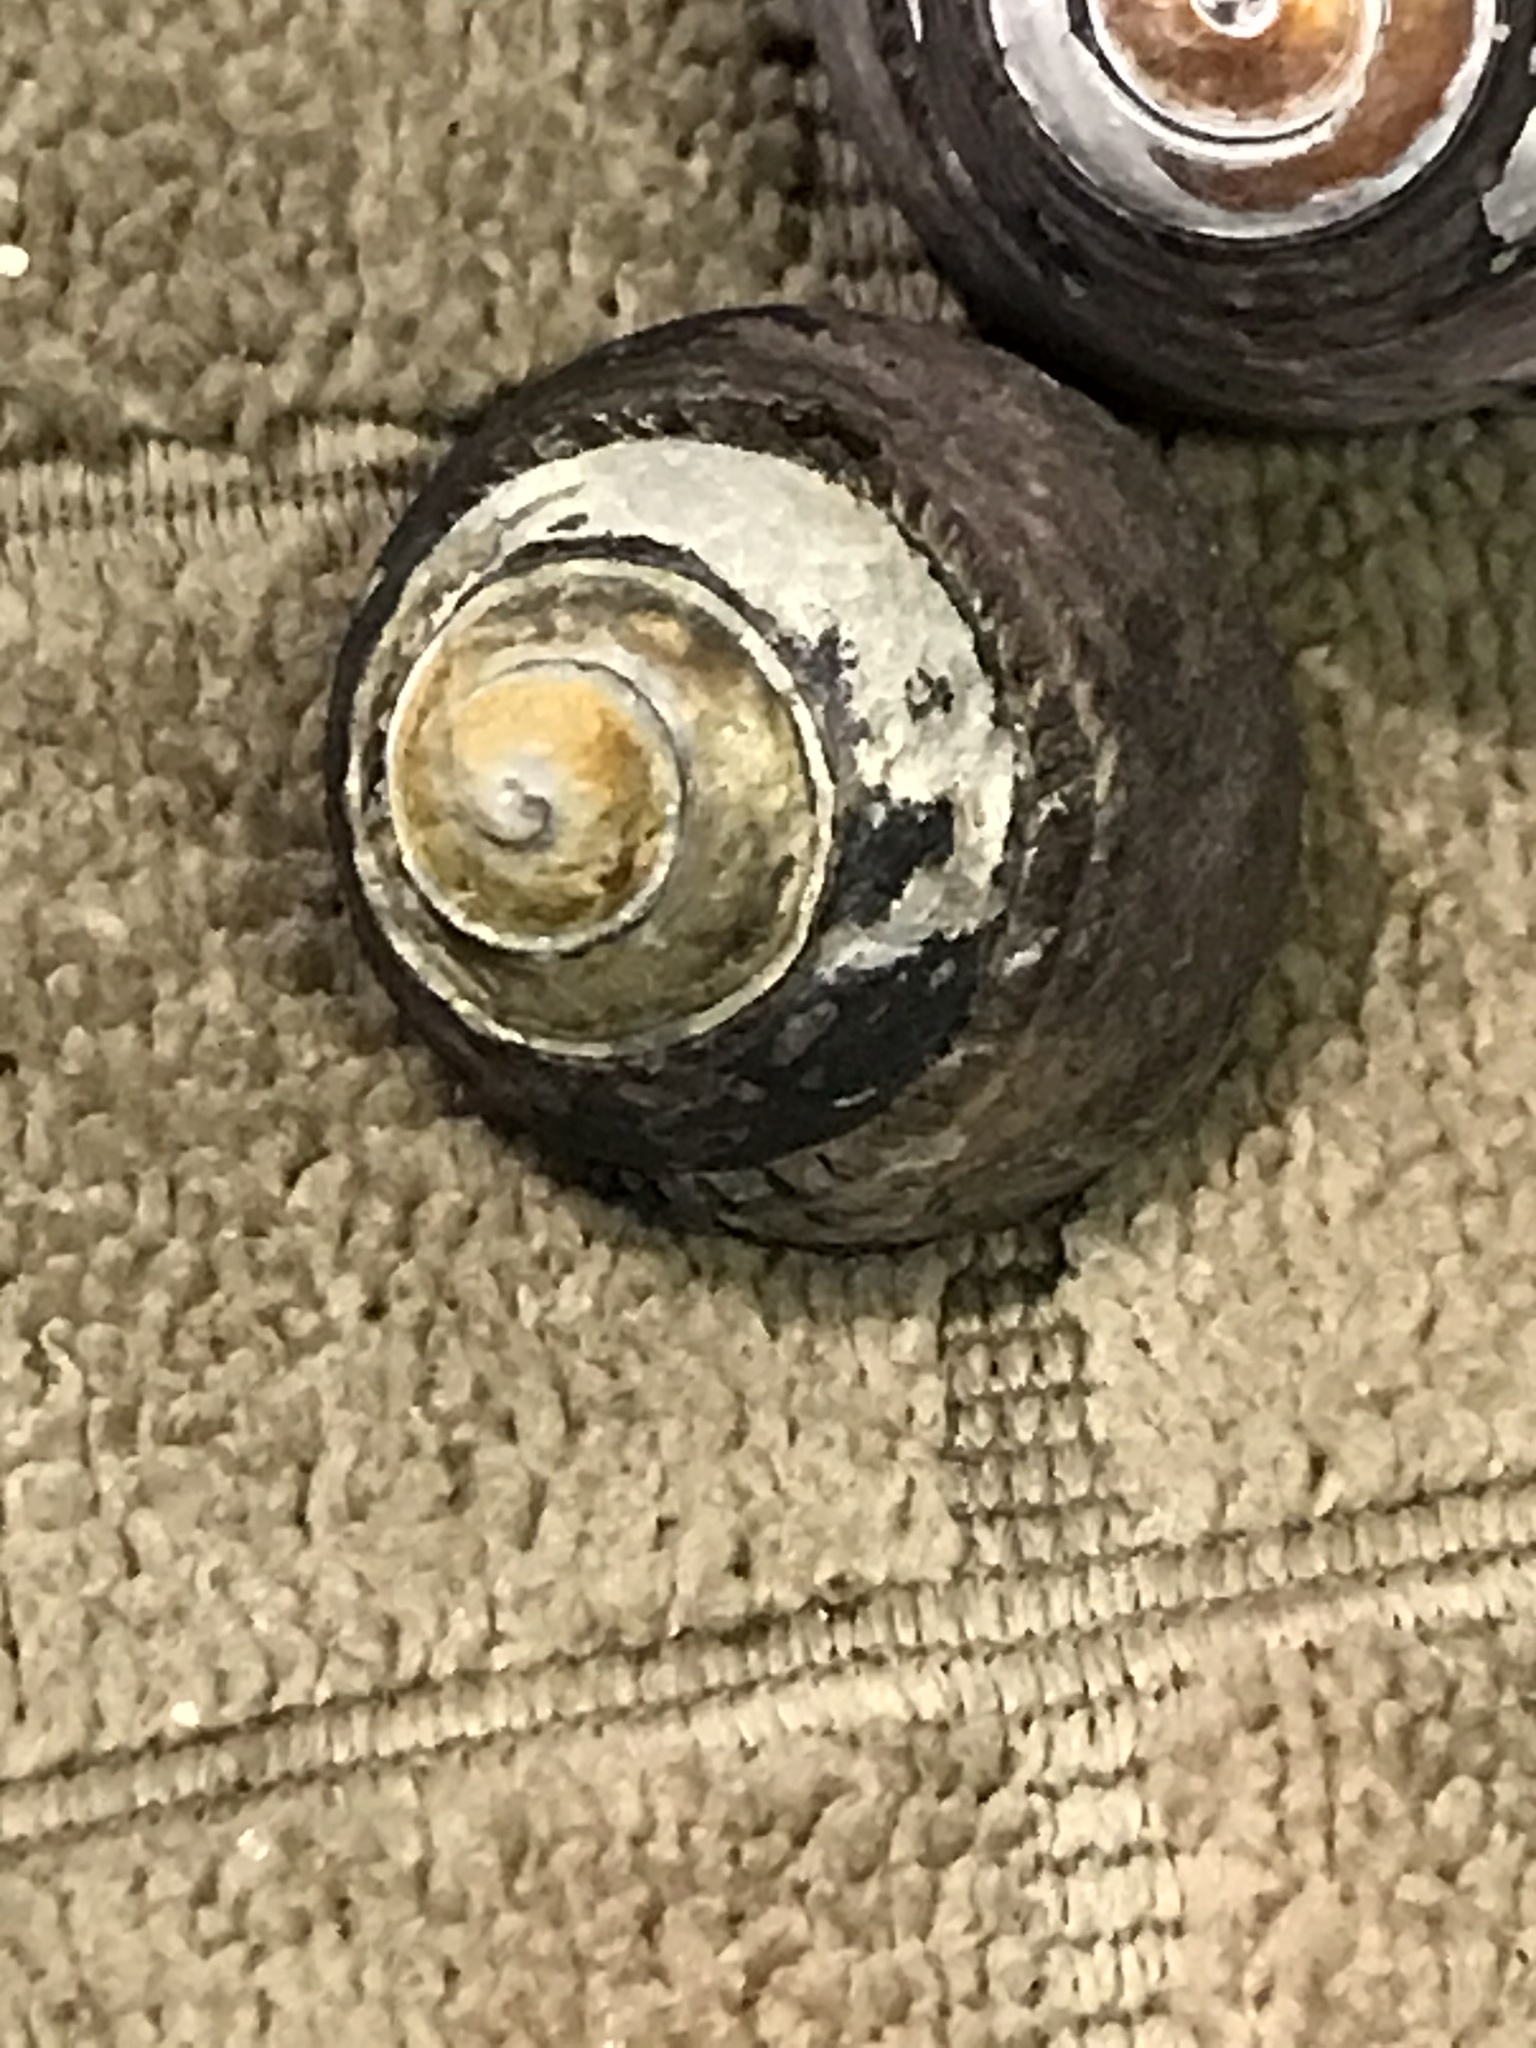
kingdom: Animalia
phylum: Mollusca
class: Gastropoda
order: Trochida
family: Tegulidae
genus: Tegula
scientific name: Tegula funebralis
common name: Black tegula
